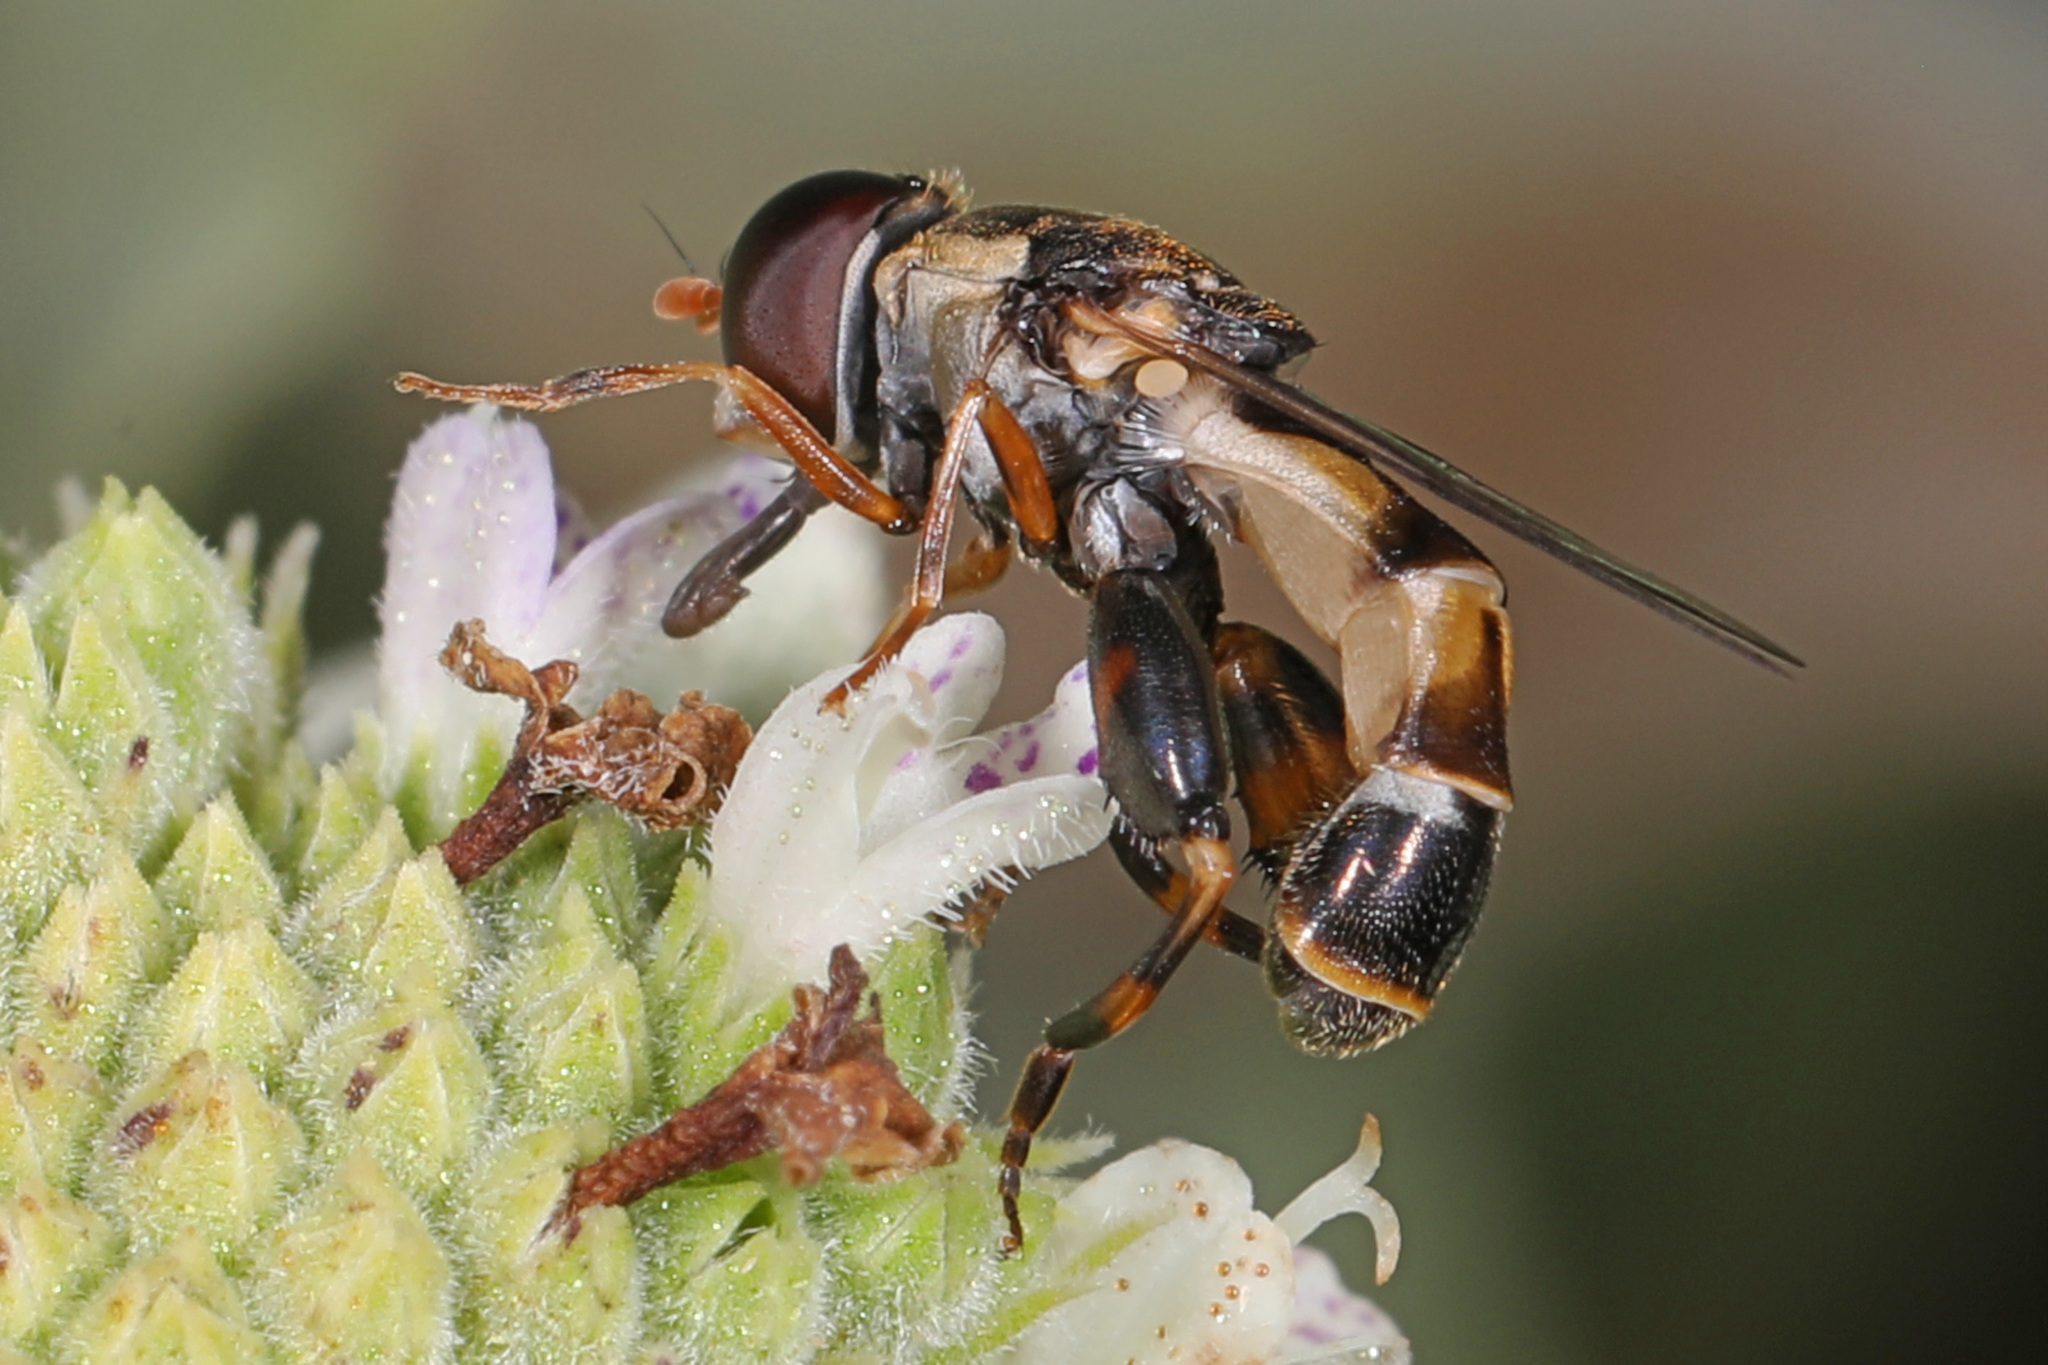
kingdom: Animalia
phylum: Arthropoda
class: Insecta
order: Diptera
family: Syrphidae
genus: Syritta
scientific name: Syritta pipiens
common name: Hover fly
